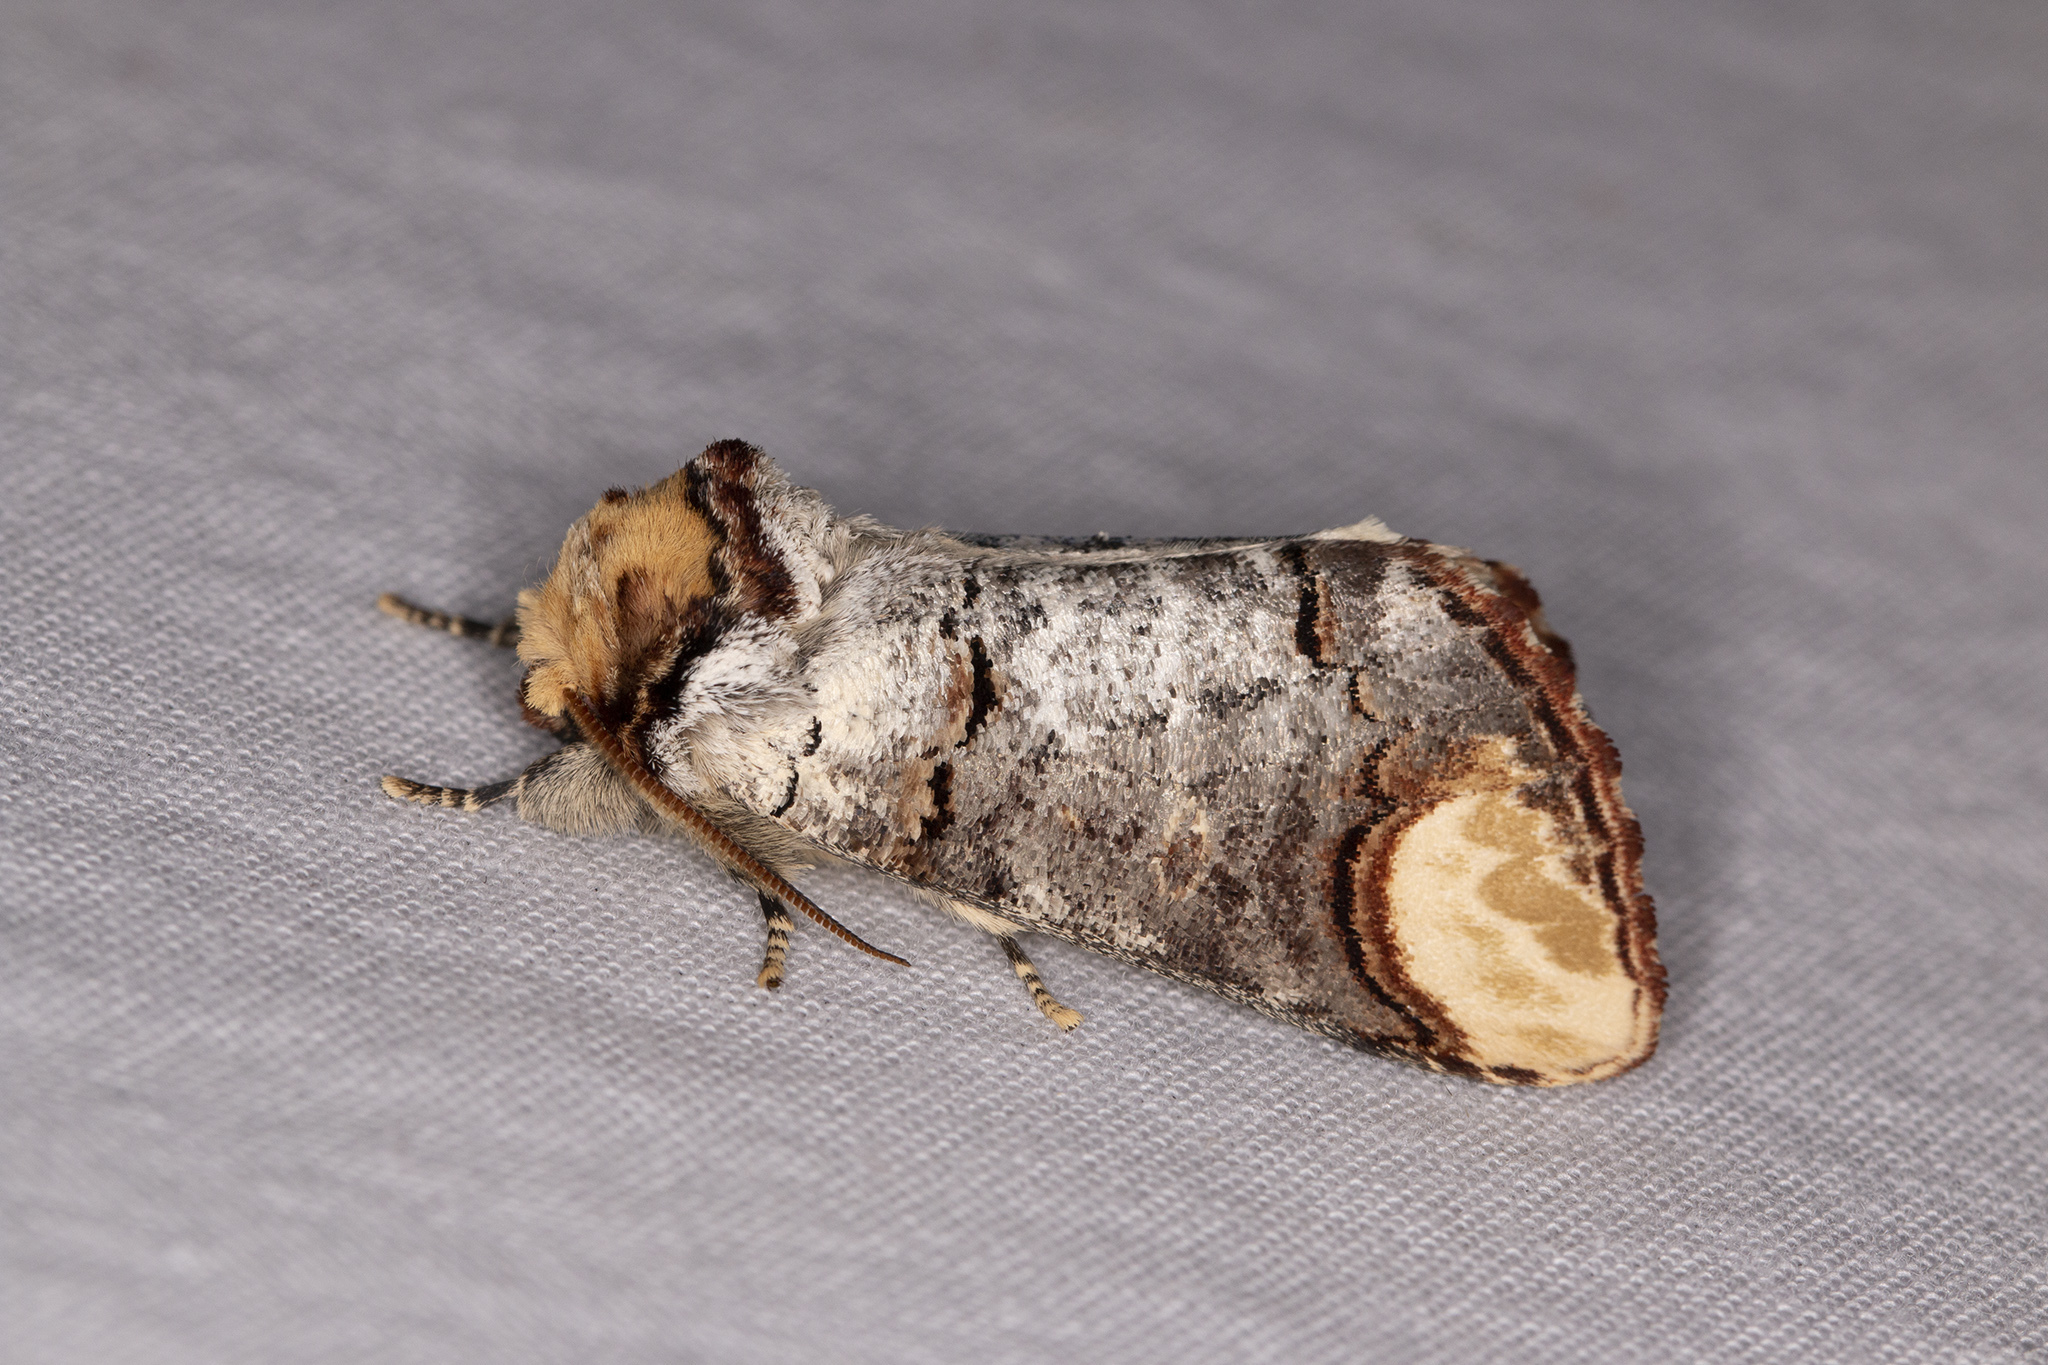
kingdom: Animalia
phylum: Arthropoda
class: Insecta
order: Lepidoptera
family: Notodontidae
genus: Phalera
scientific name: Phalera bucephala
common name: Buff-tip
